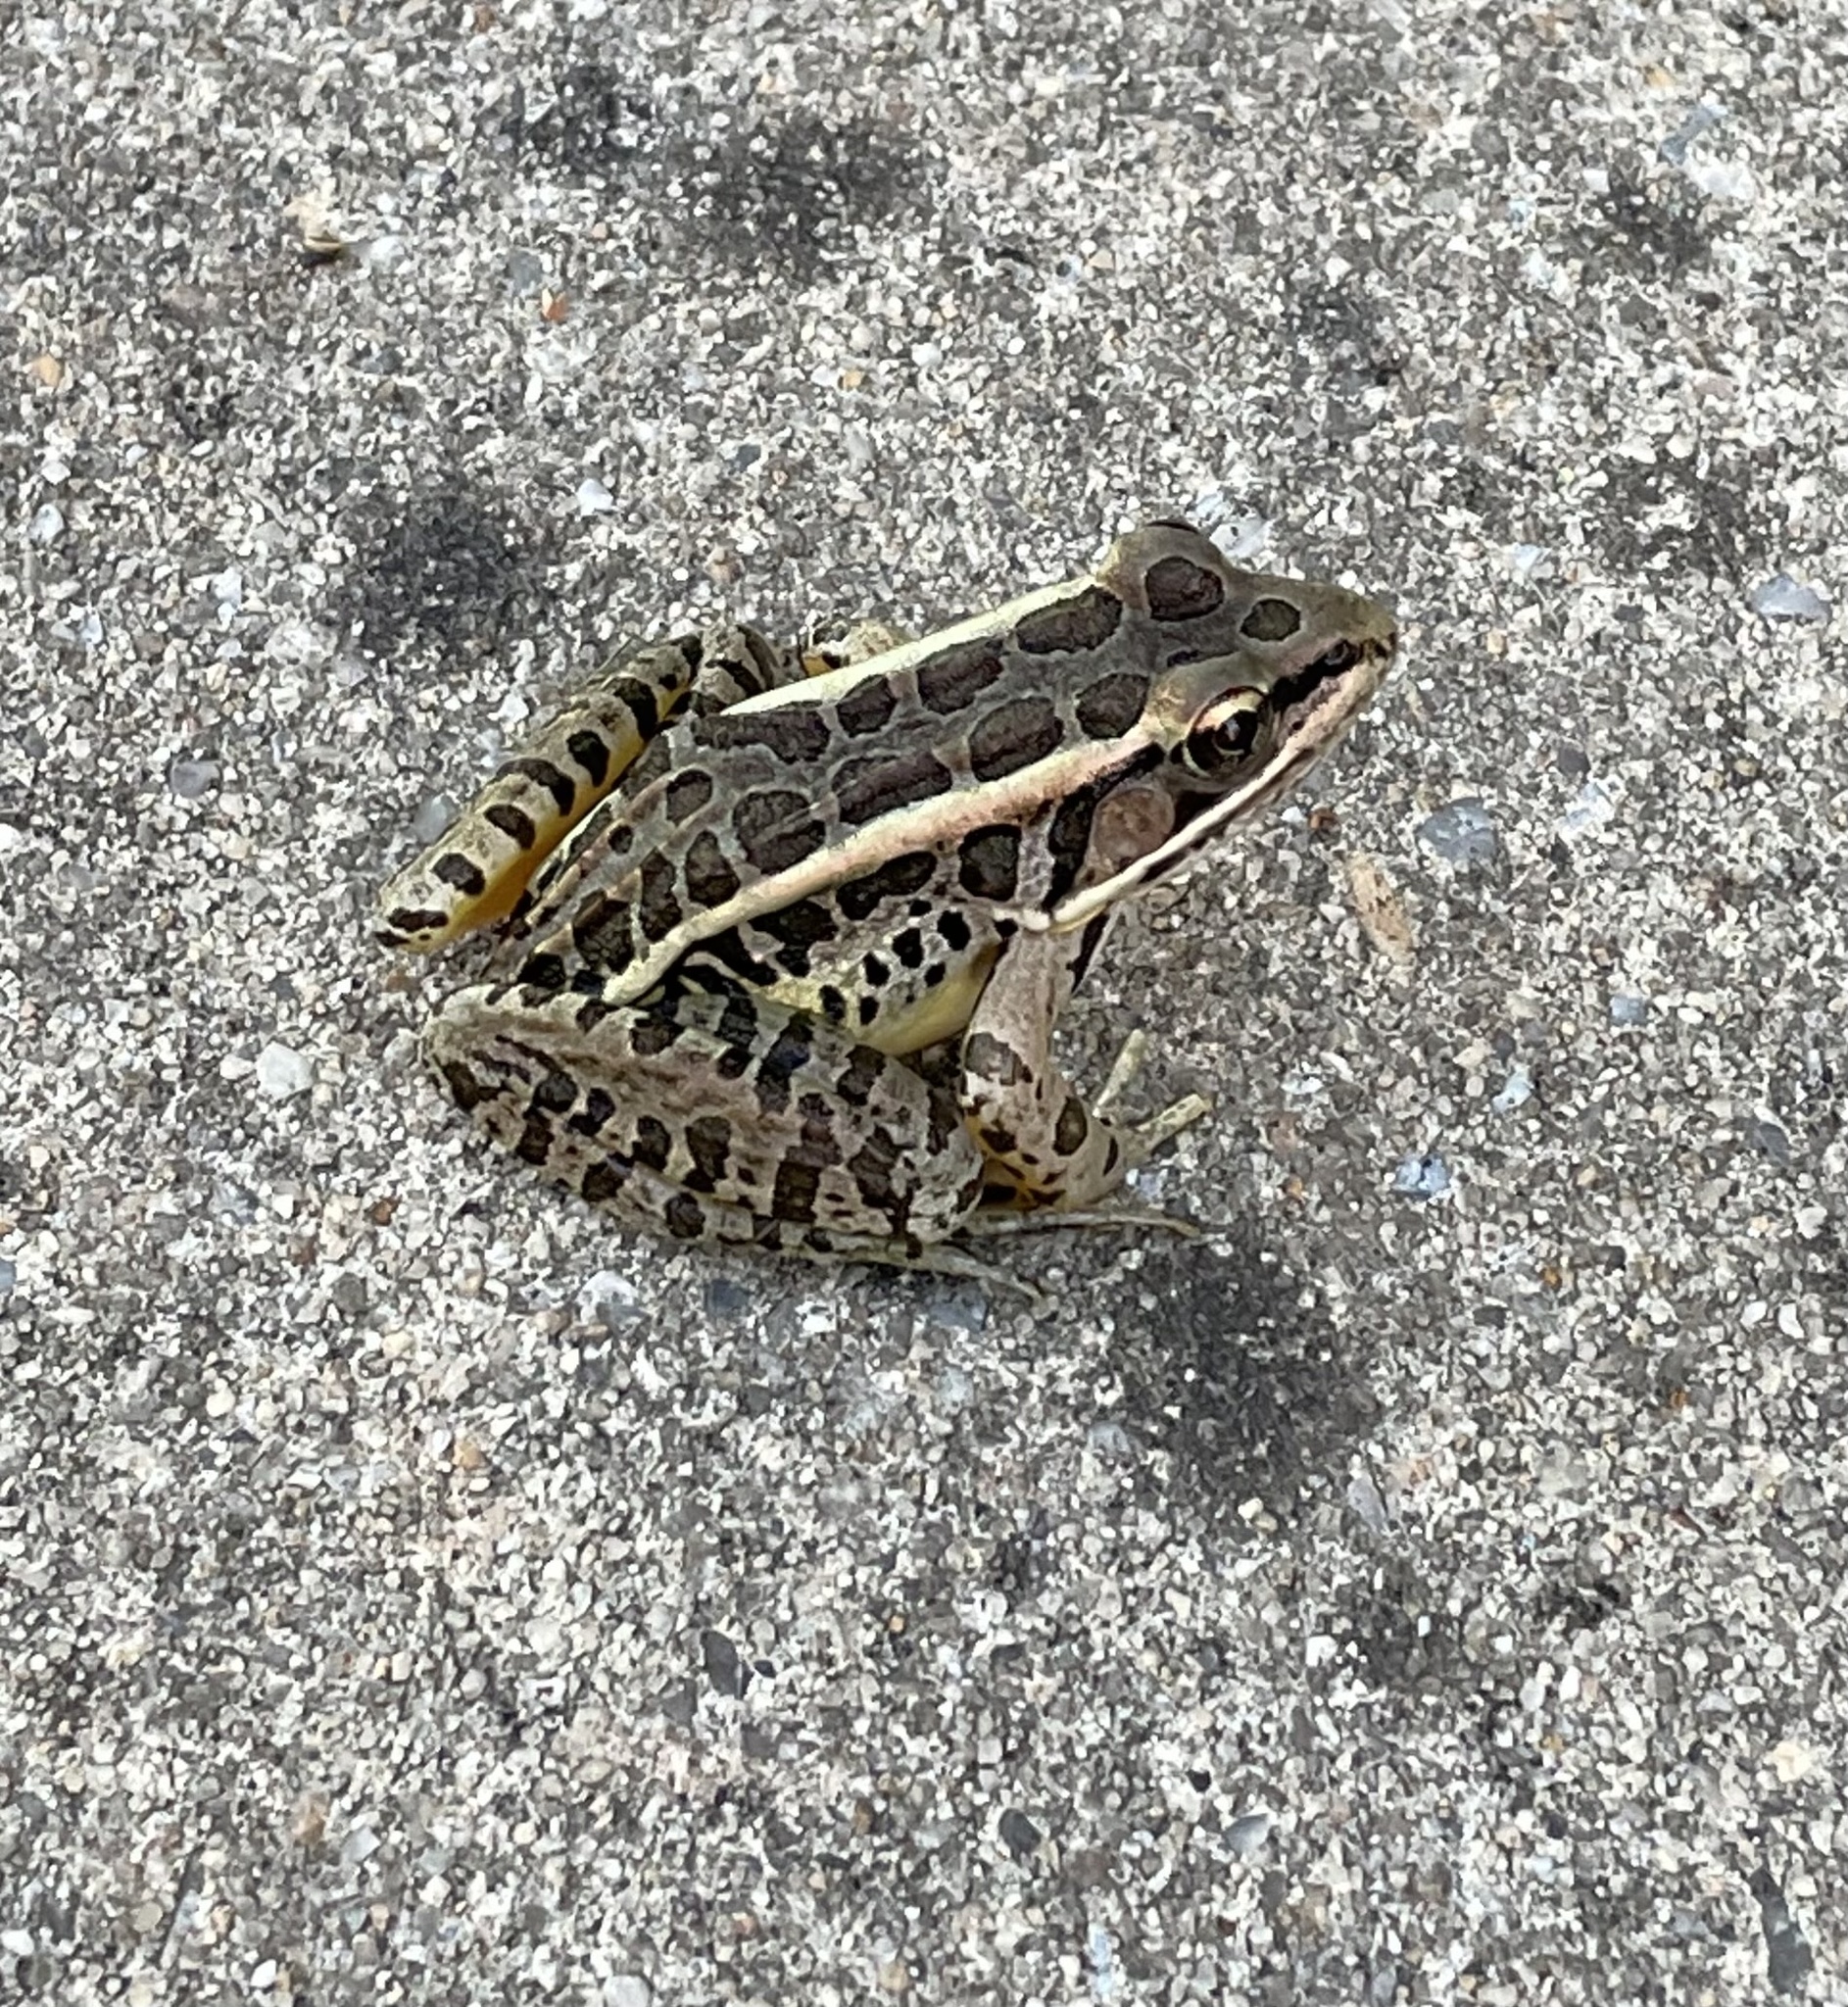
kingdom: Animalia
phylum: Chordata
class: Amphibia
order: Anura
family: Ranidae
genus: Lithobates
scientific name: Lithobates palustris
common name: Pickerel frog
